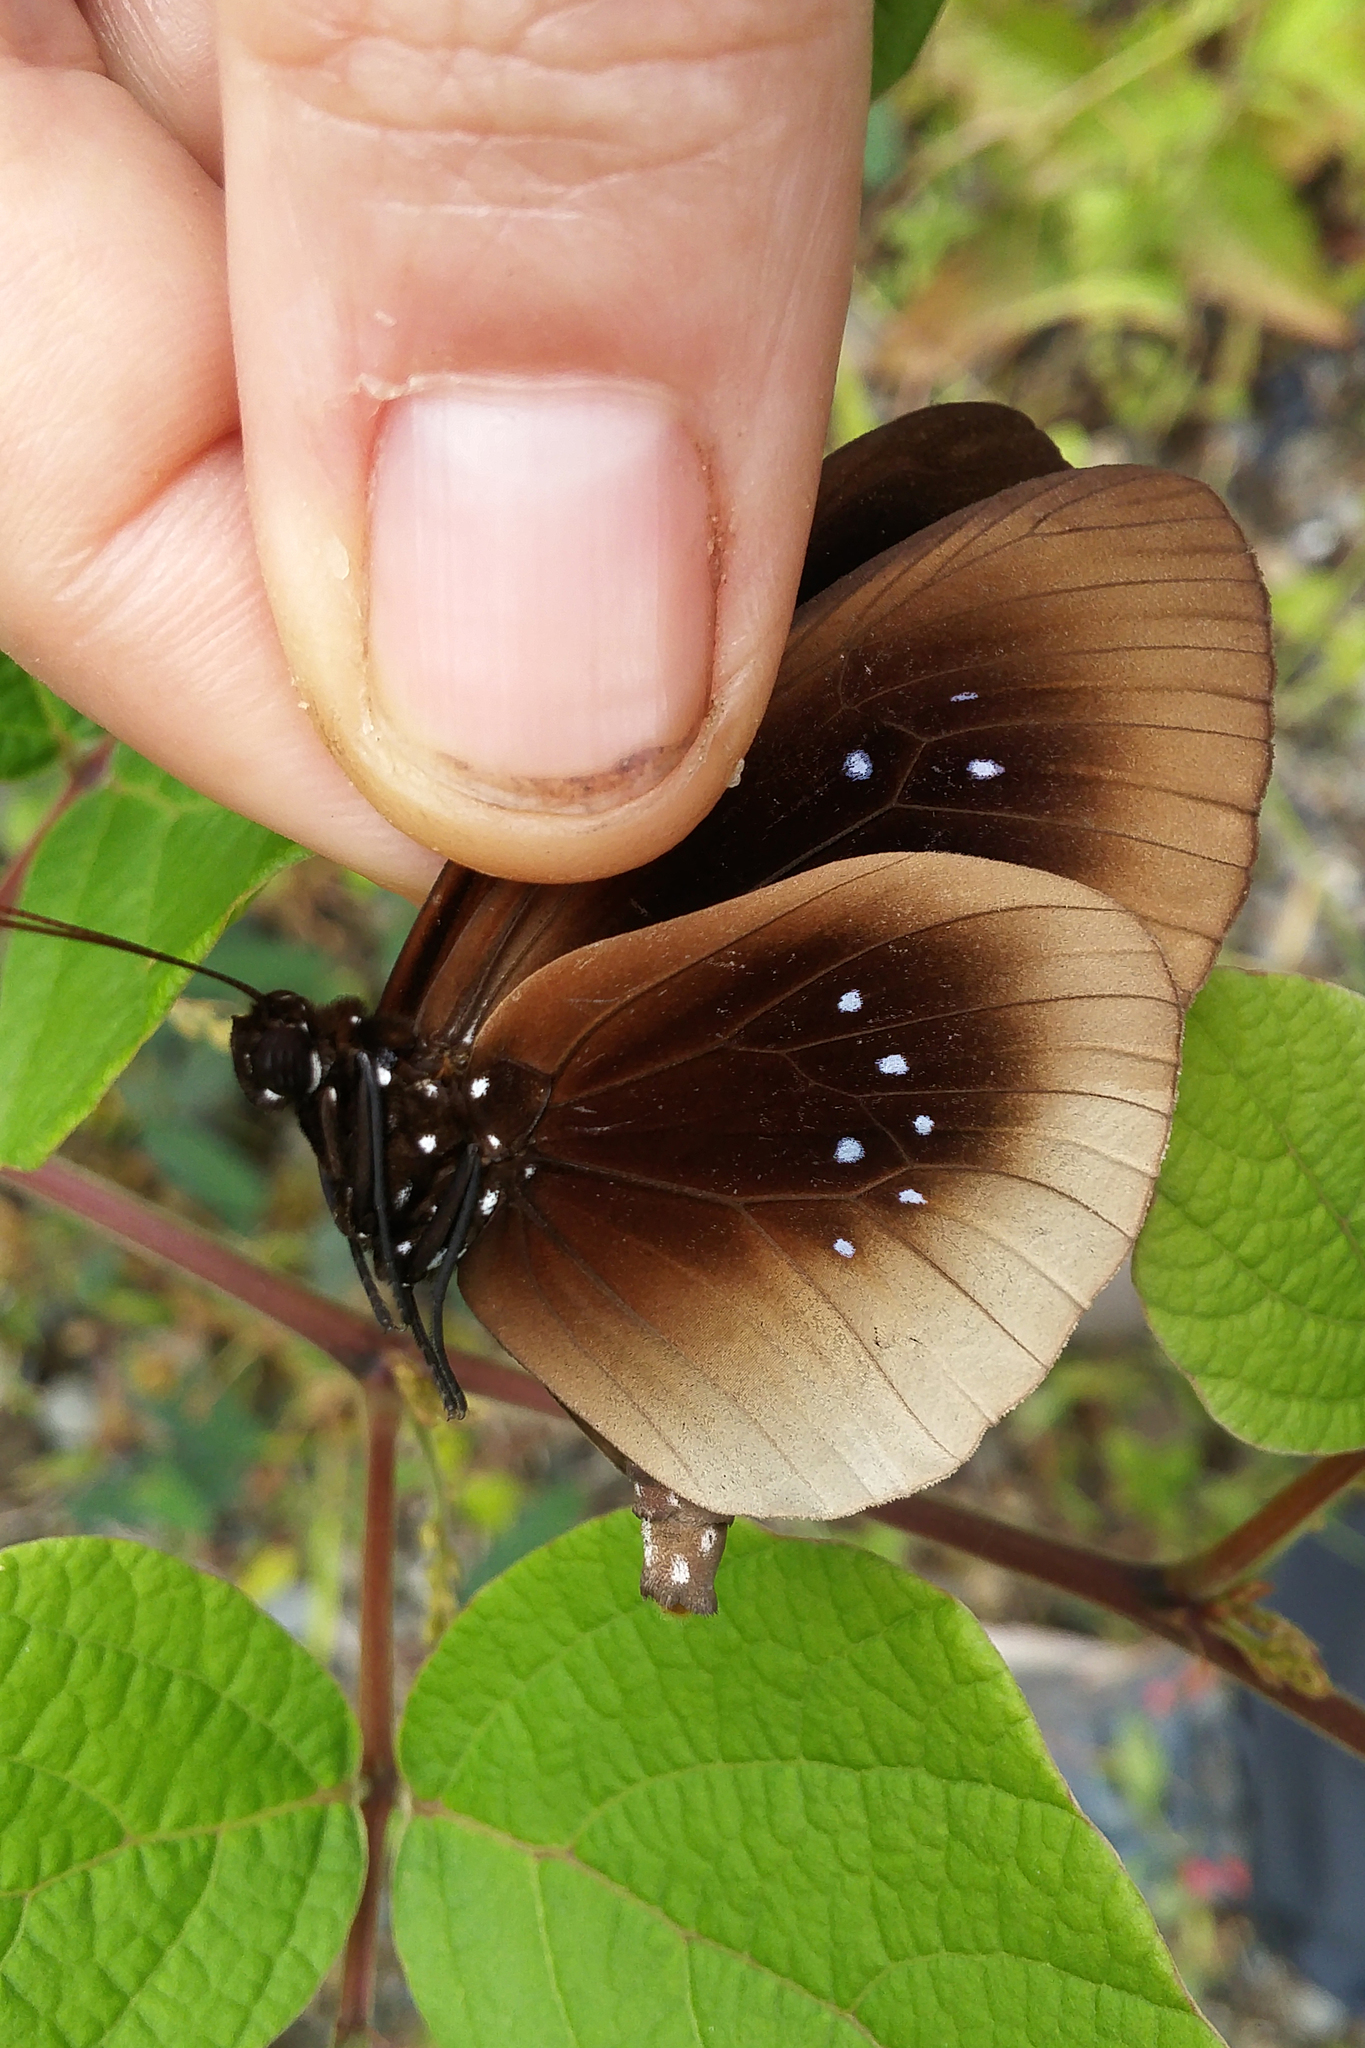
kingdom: Animalia
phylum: Arthropoda
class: Insecta
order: Lepidoptera
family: Nymphalidae
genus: Euploea
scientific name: Euploea netscheri
